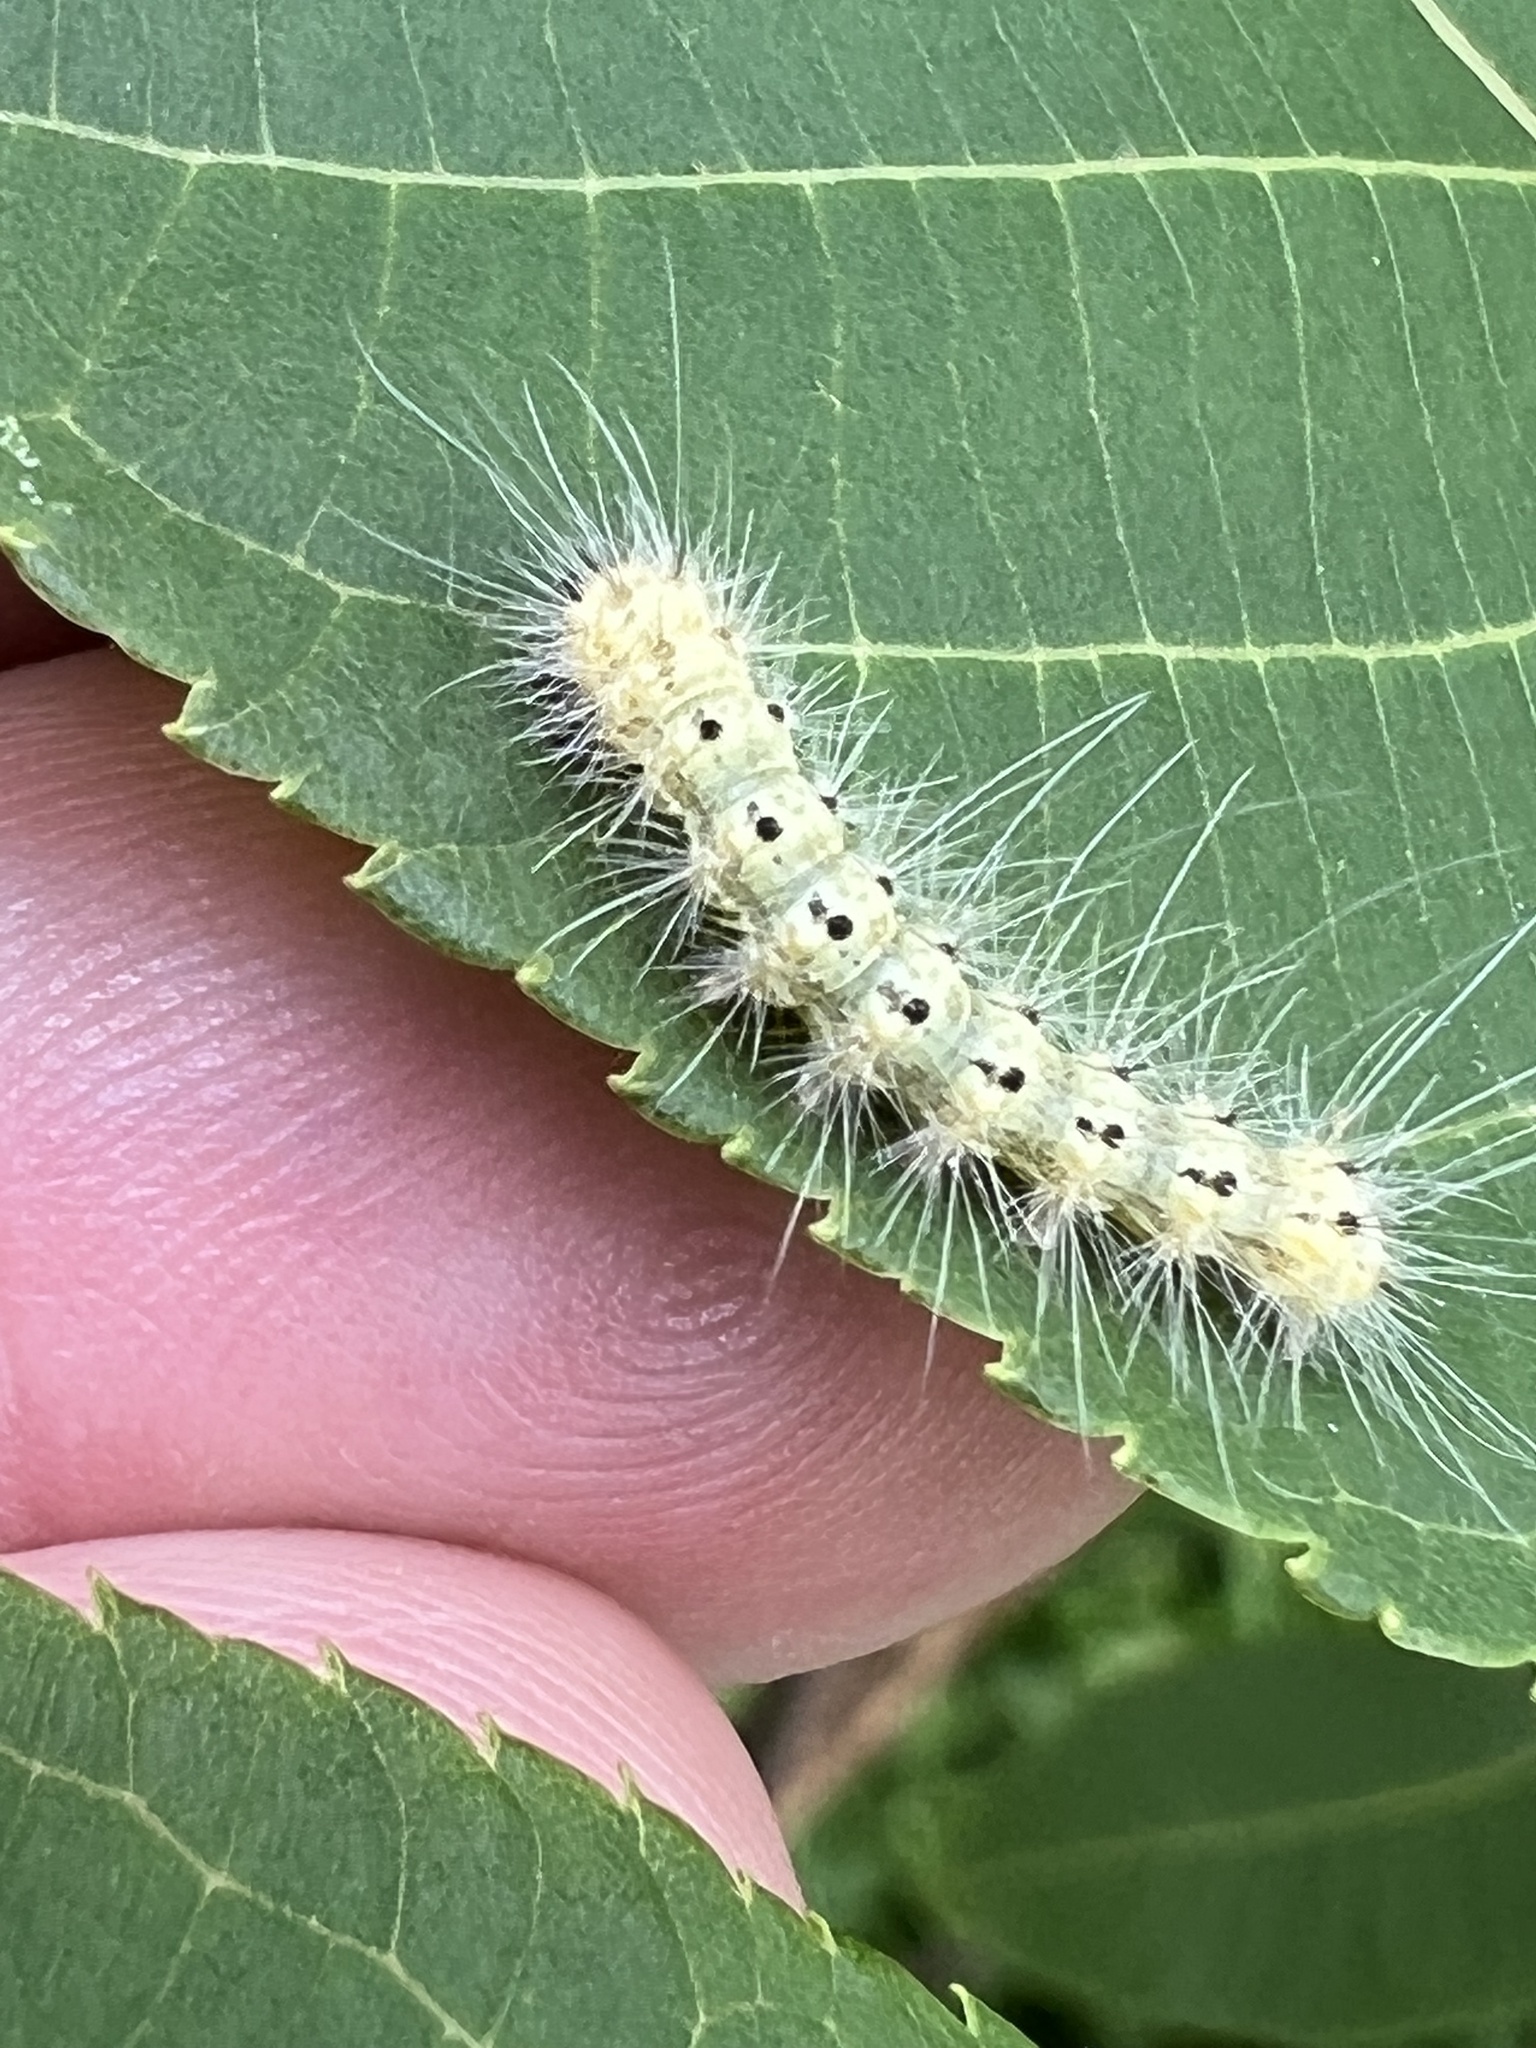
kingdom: Animalia
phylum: Arthropoda
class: Insecta
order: Lepidoptera
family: Erebidae
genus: Hyphantria
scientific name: Hyphantria cunea
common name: American white moth
